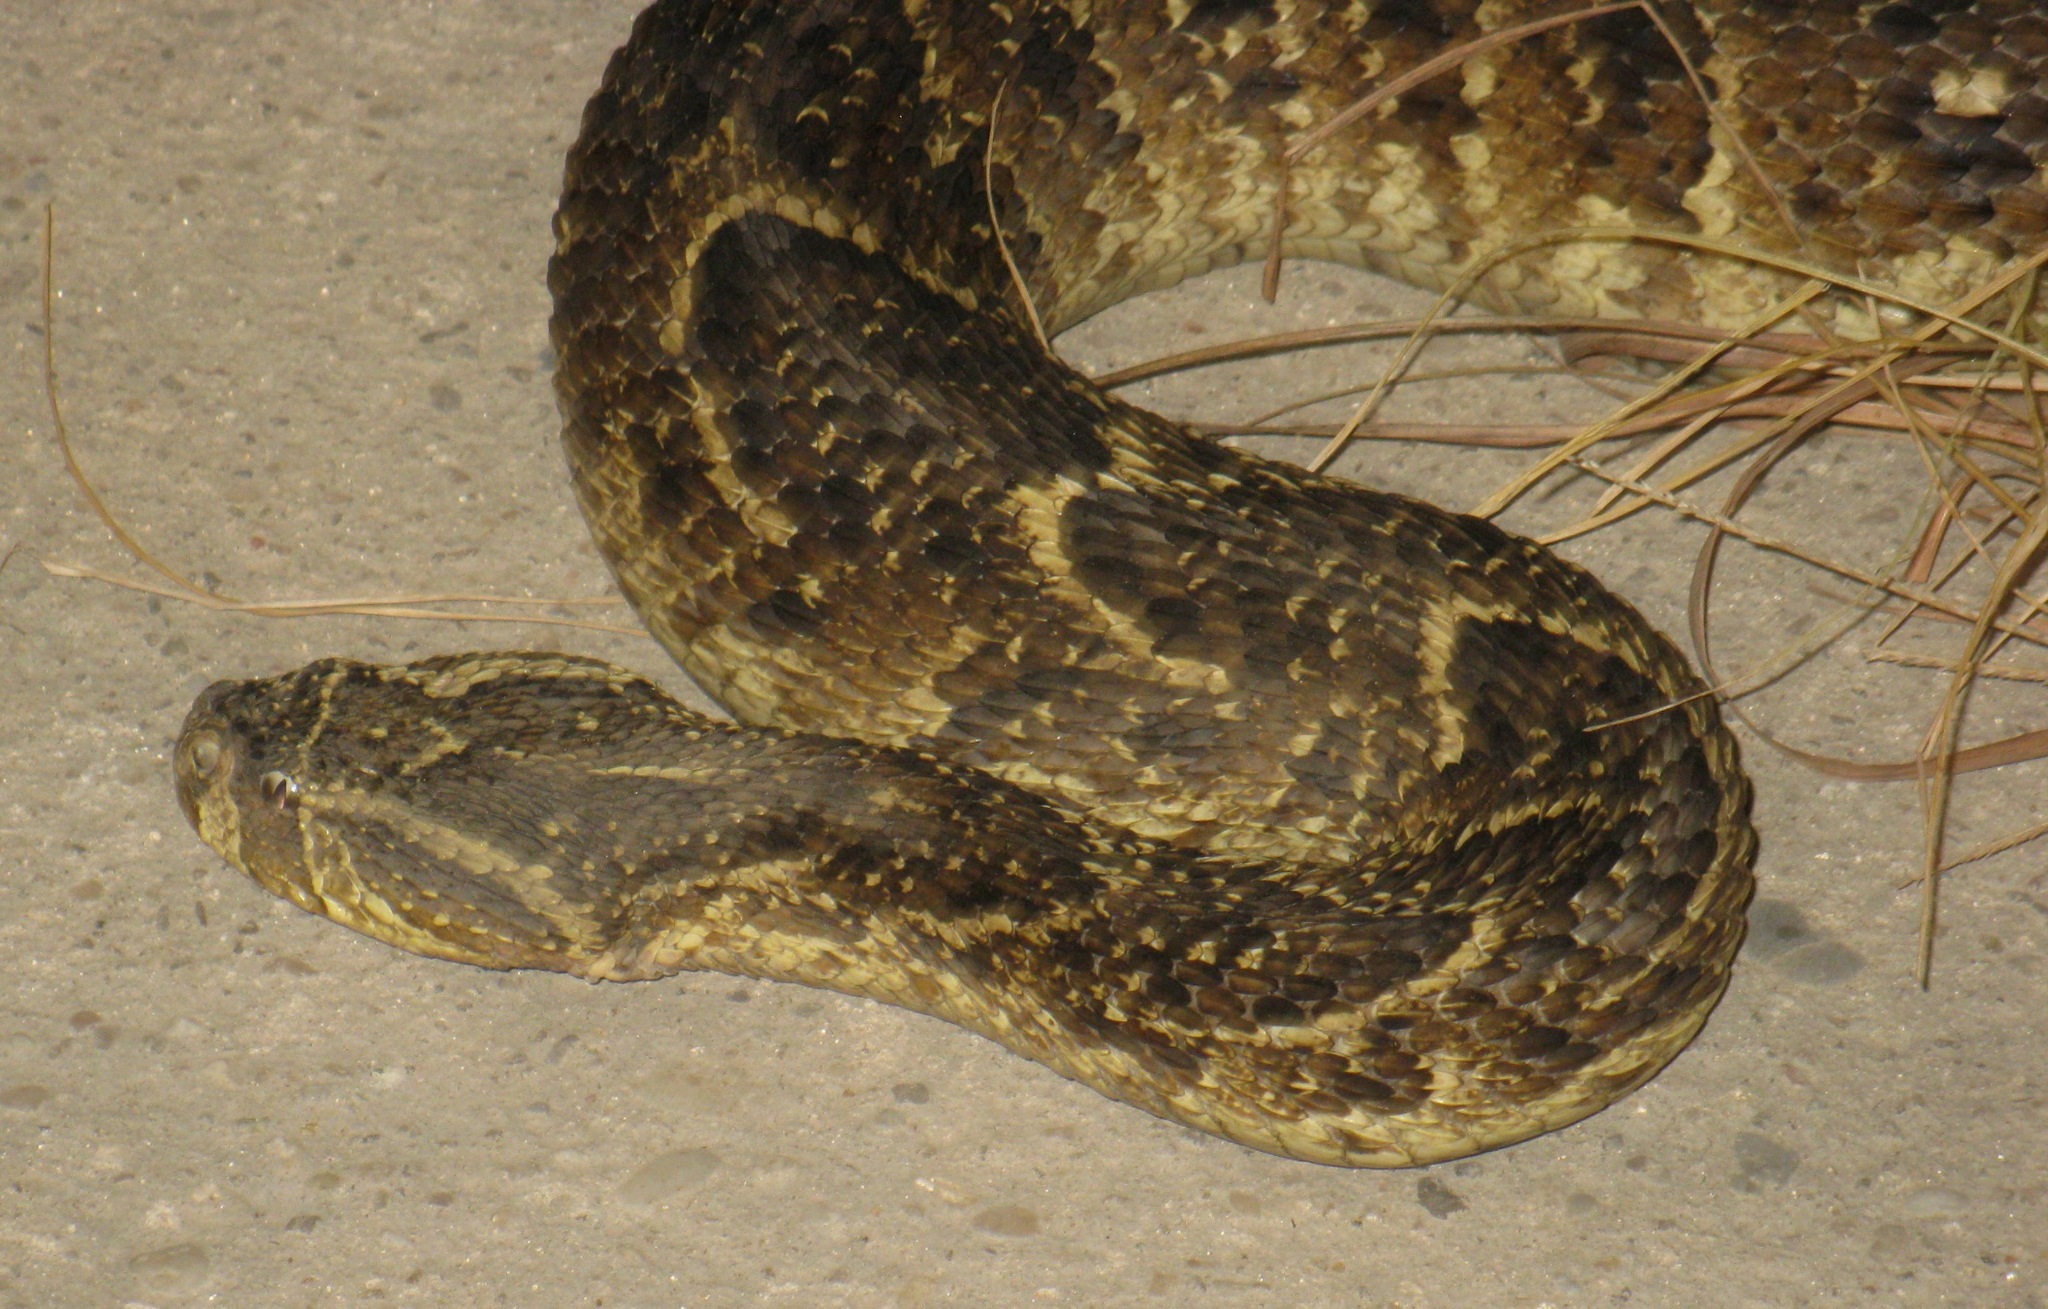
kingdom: Animalia
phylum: Chordata
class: Squamata
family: Viperidae
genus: Bitis
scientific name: Bitis arietans
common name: Puff adder
